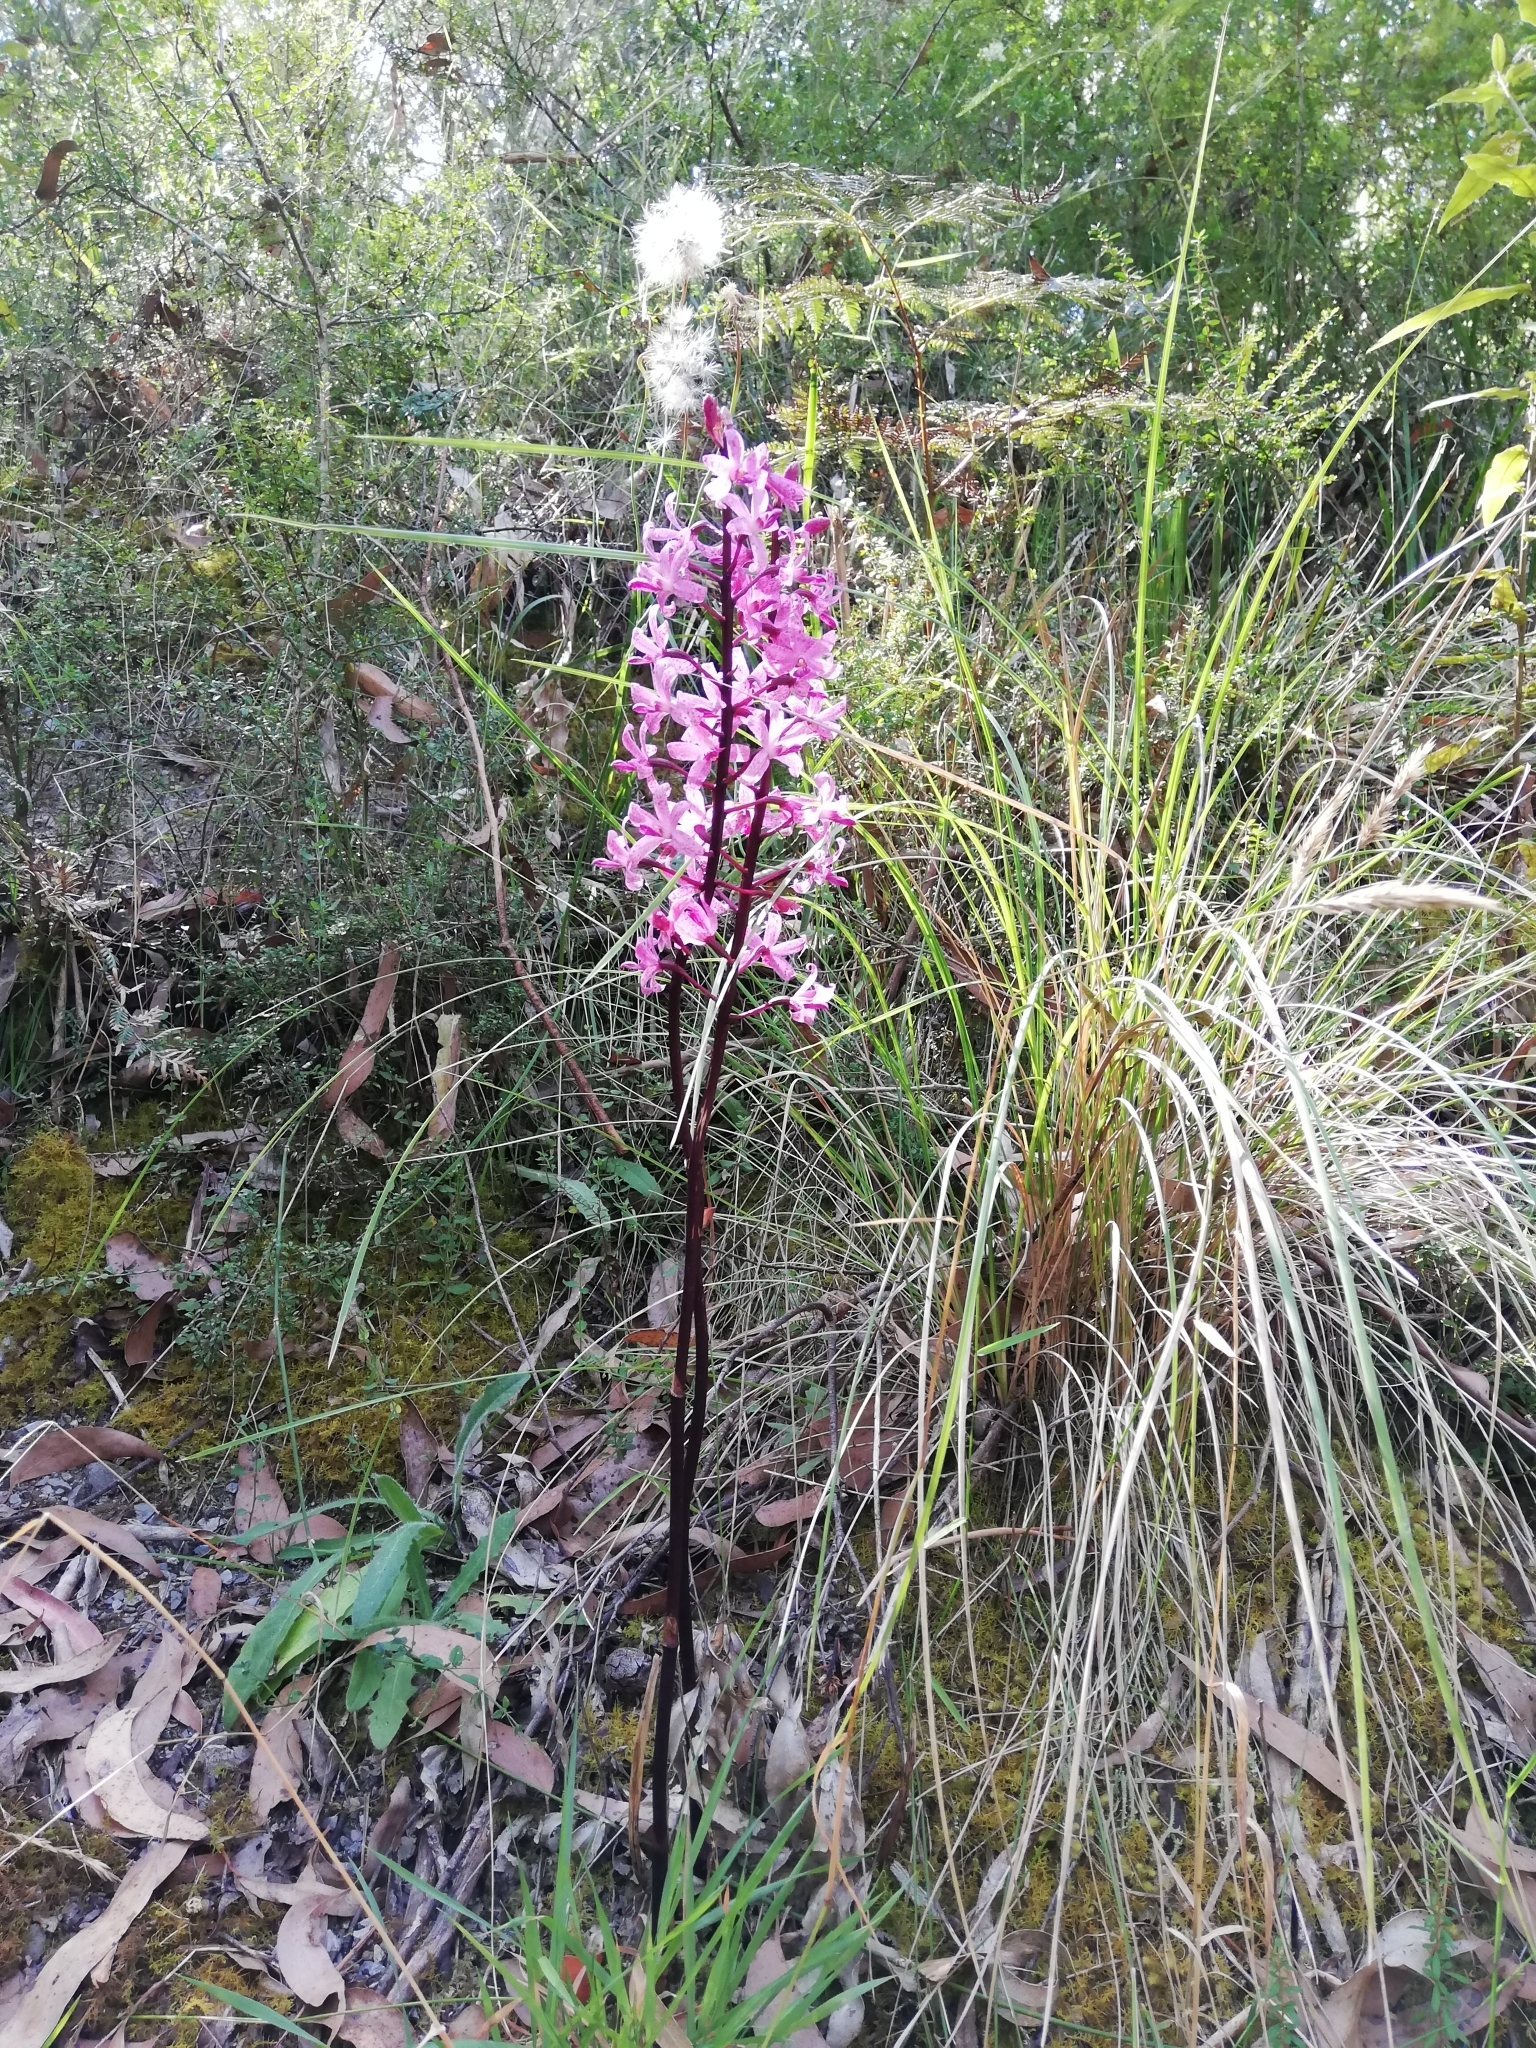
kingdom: Plantae
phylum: Tracheophyta
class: Liliopsida
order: Asparagales
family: Orchidaceae
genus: Dipodium
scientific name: Dipodium roseum
